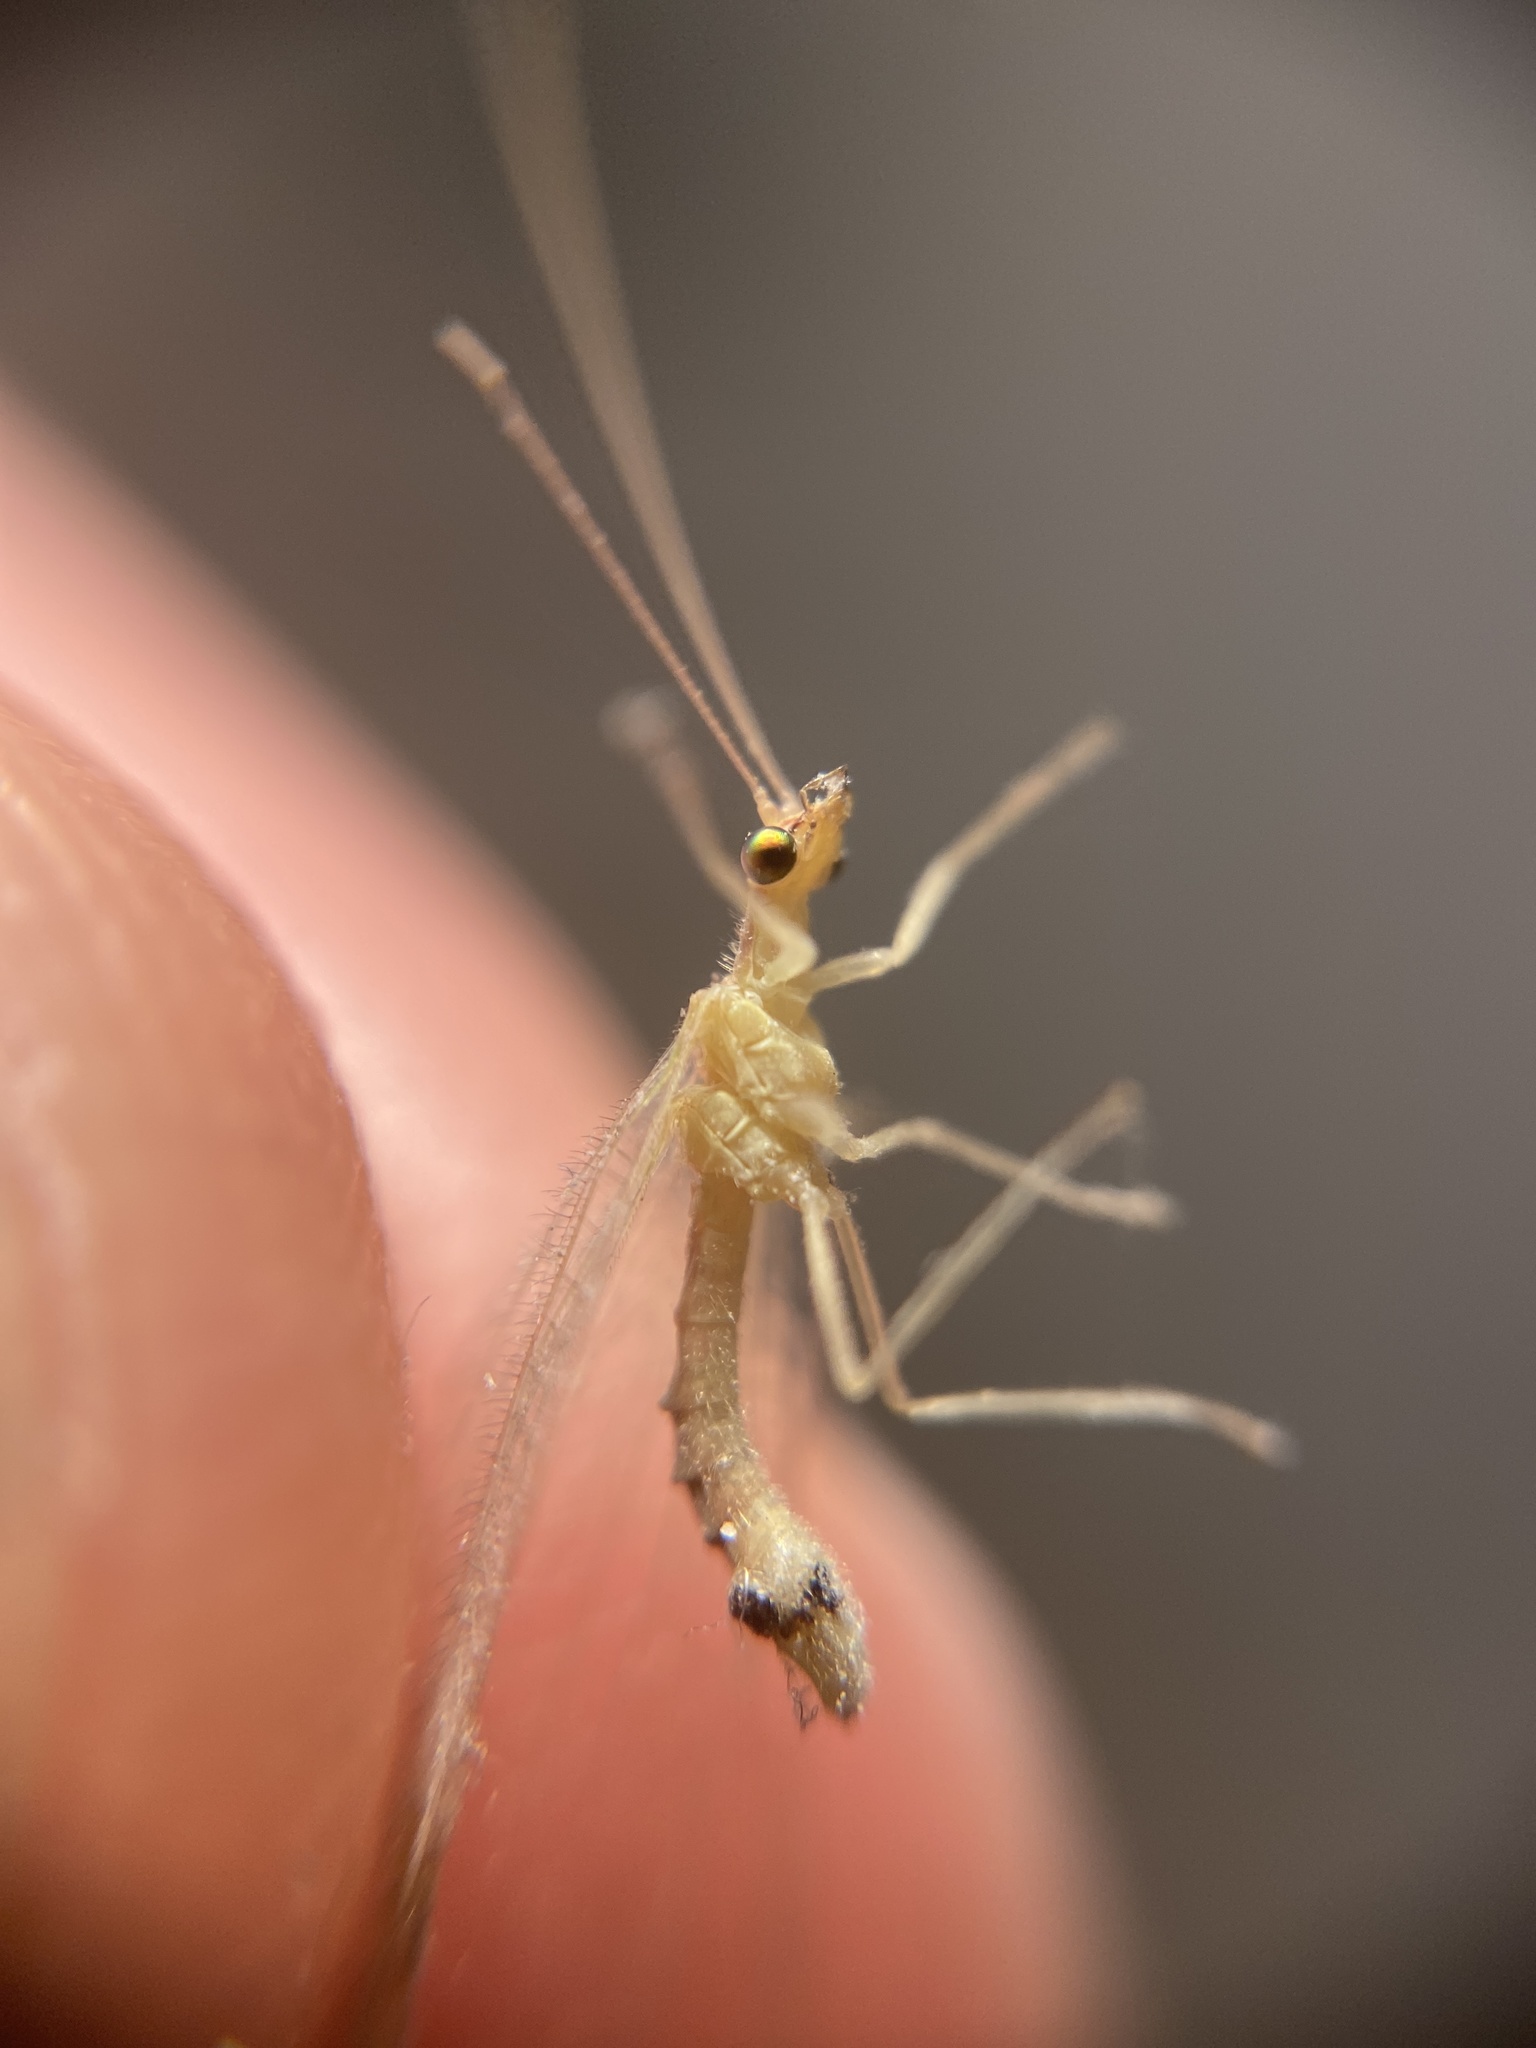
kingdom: Animalia
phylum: Arthropoda
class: Insecta
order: Neuroptera
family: Chrysopidae
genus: Chrysoperla
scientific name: Chrysoperla
